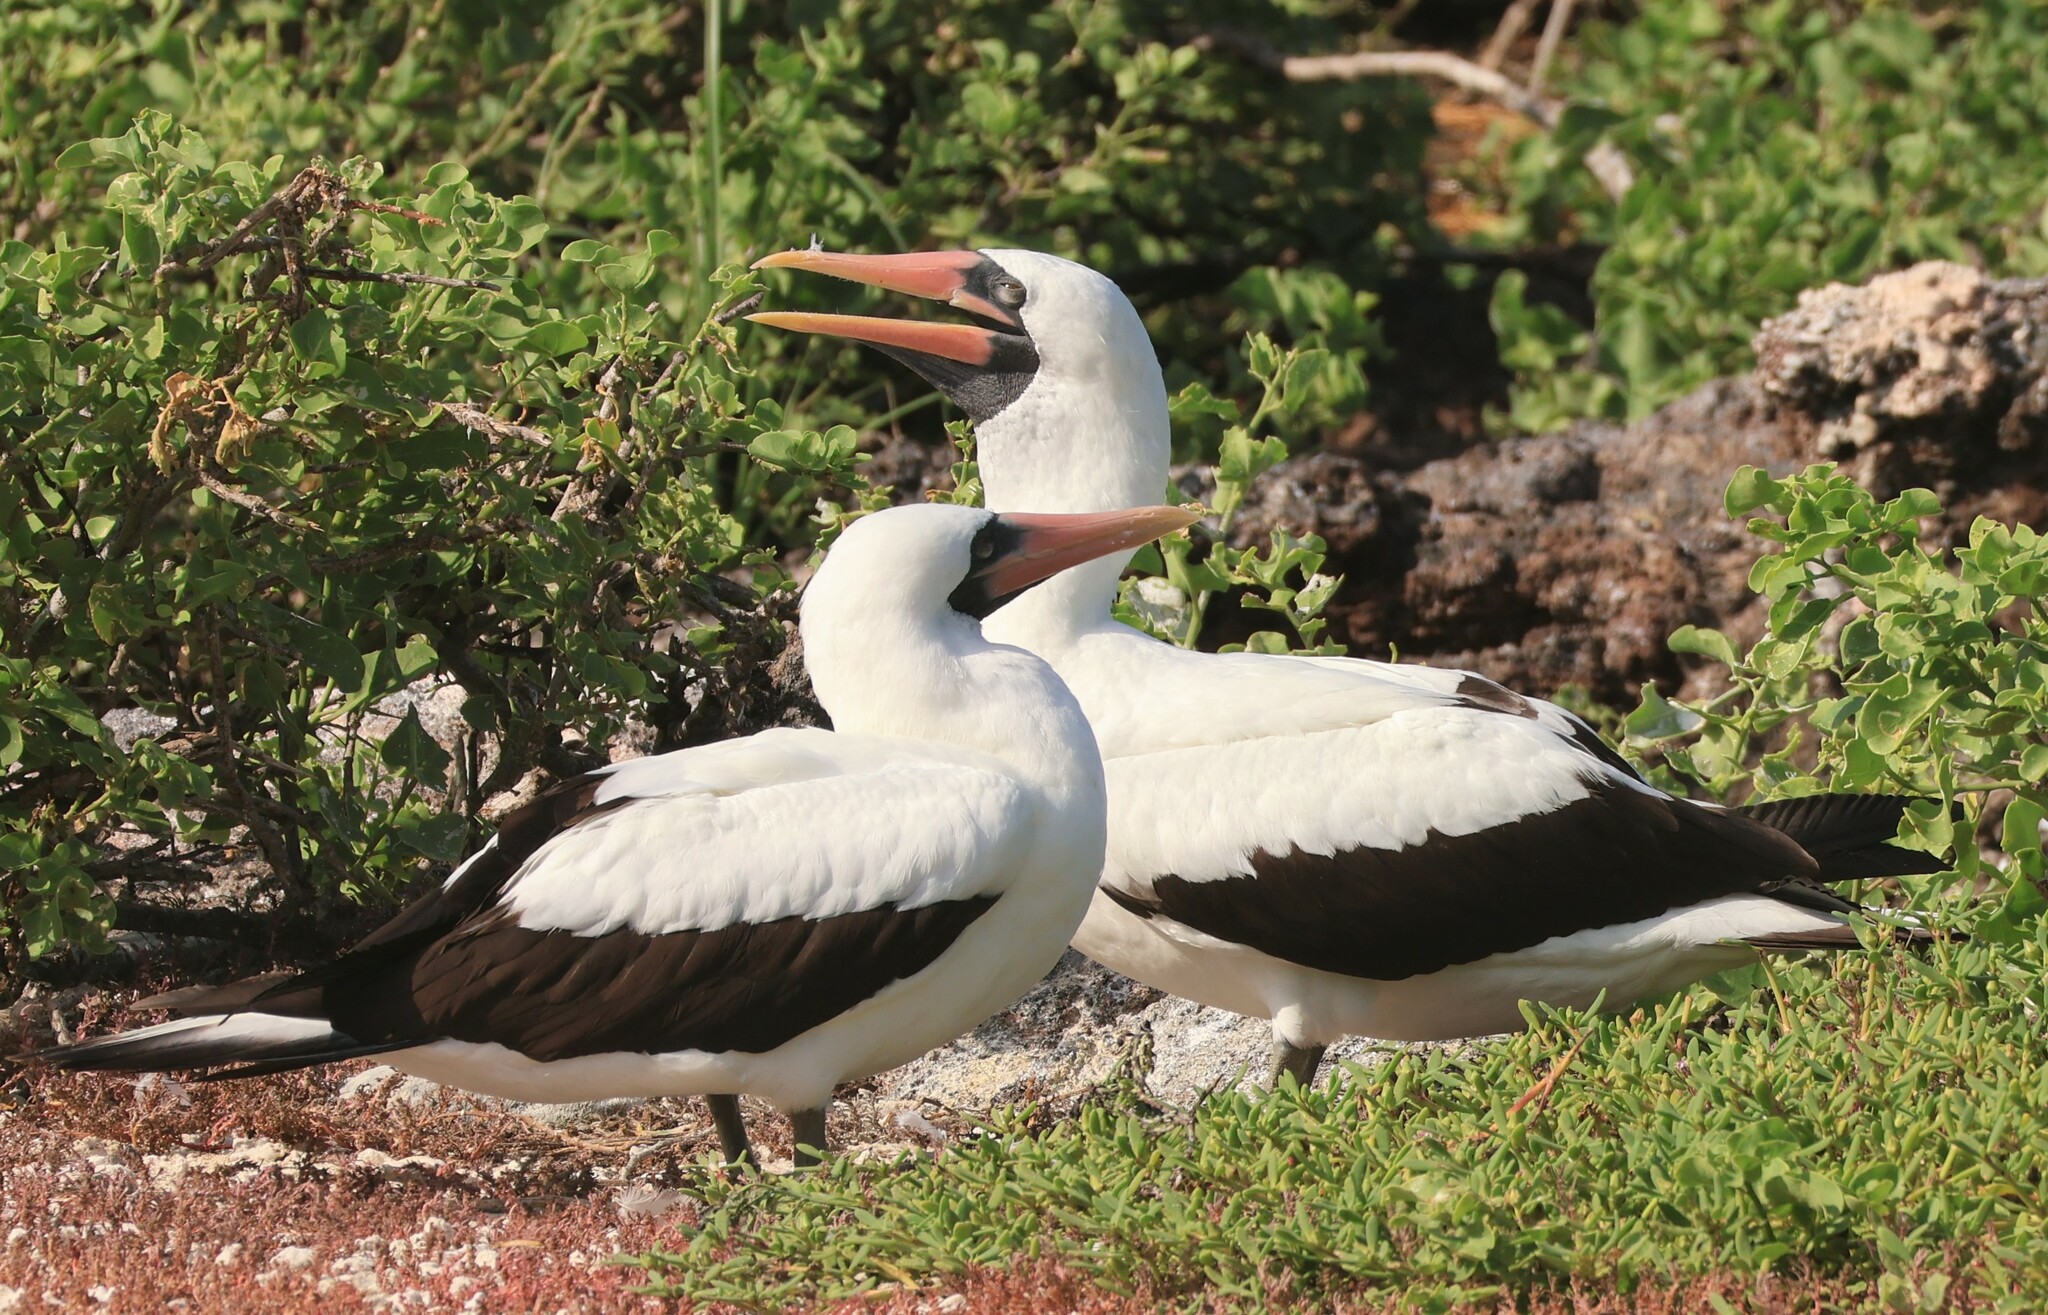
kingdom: Animalia
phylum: Chordata
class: Aves
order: Suliformes
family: Sulidae
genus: Sula
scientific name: Sula granti
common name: Nazca booby
